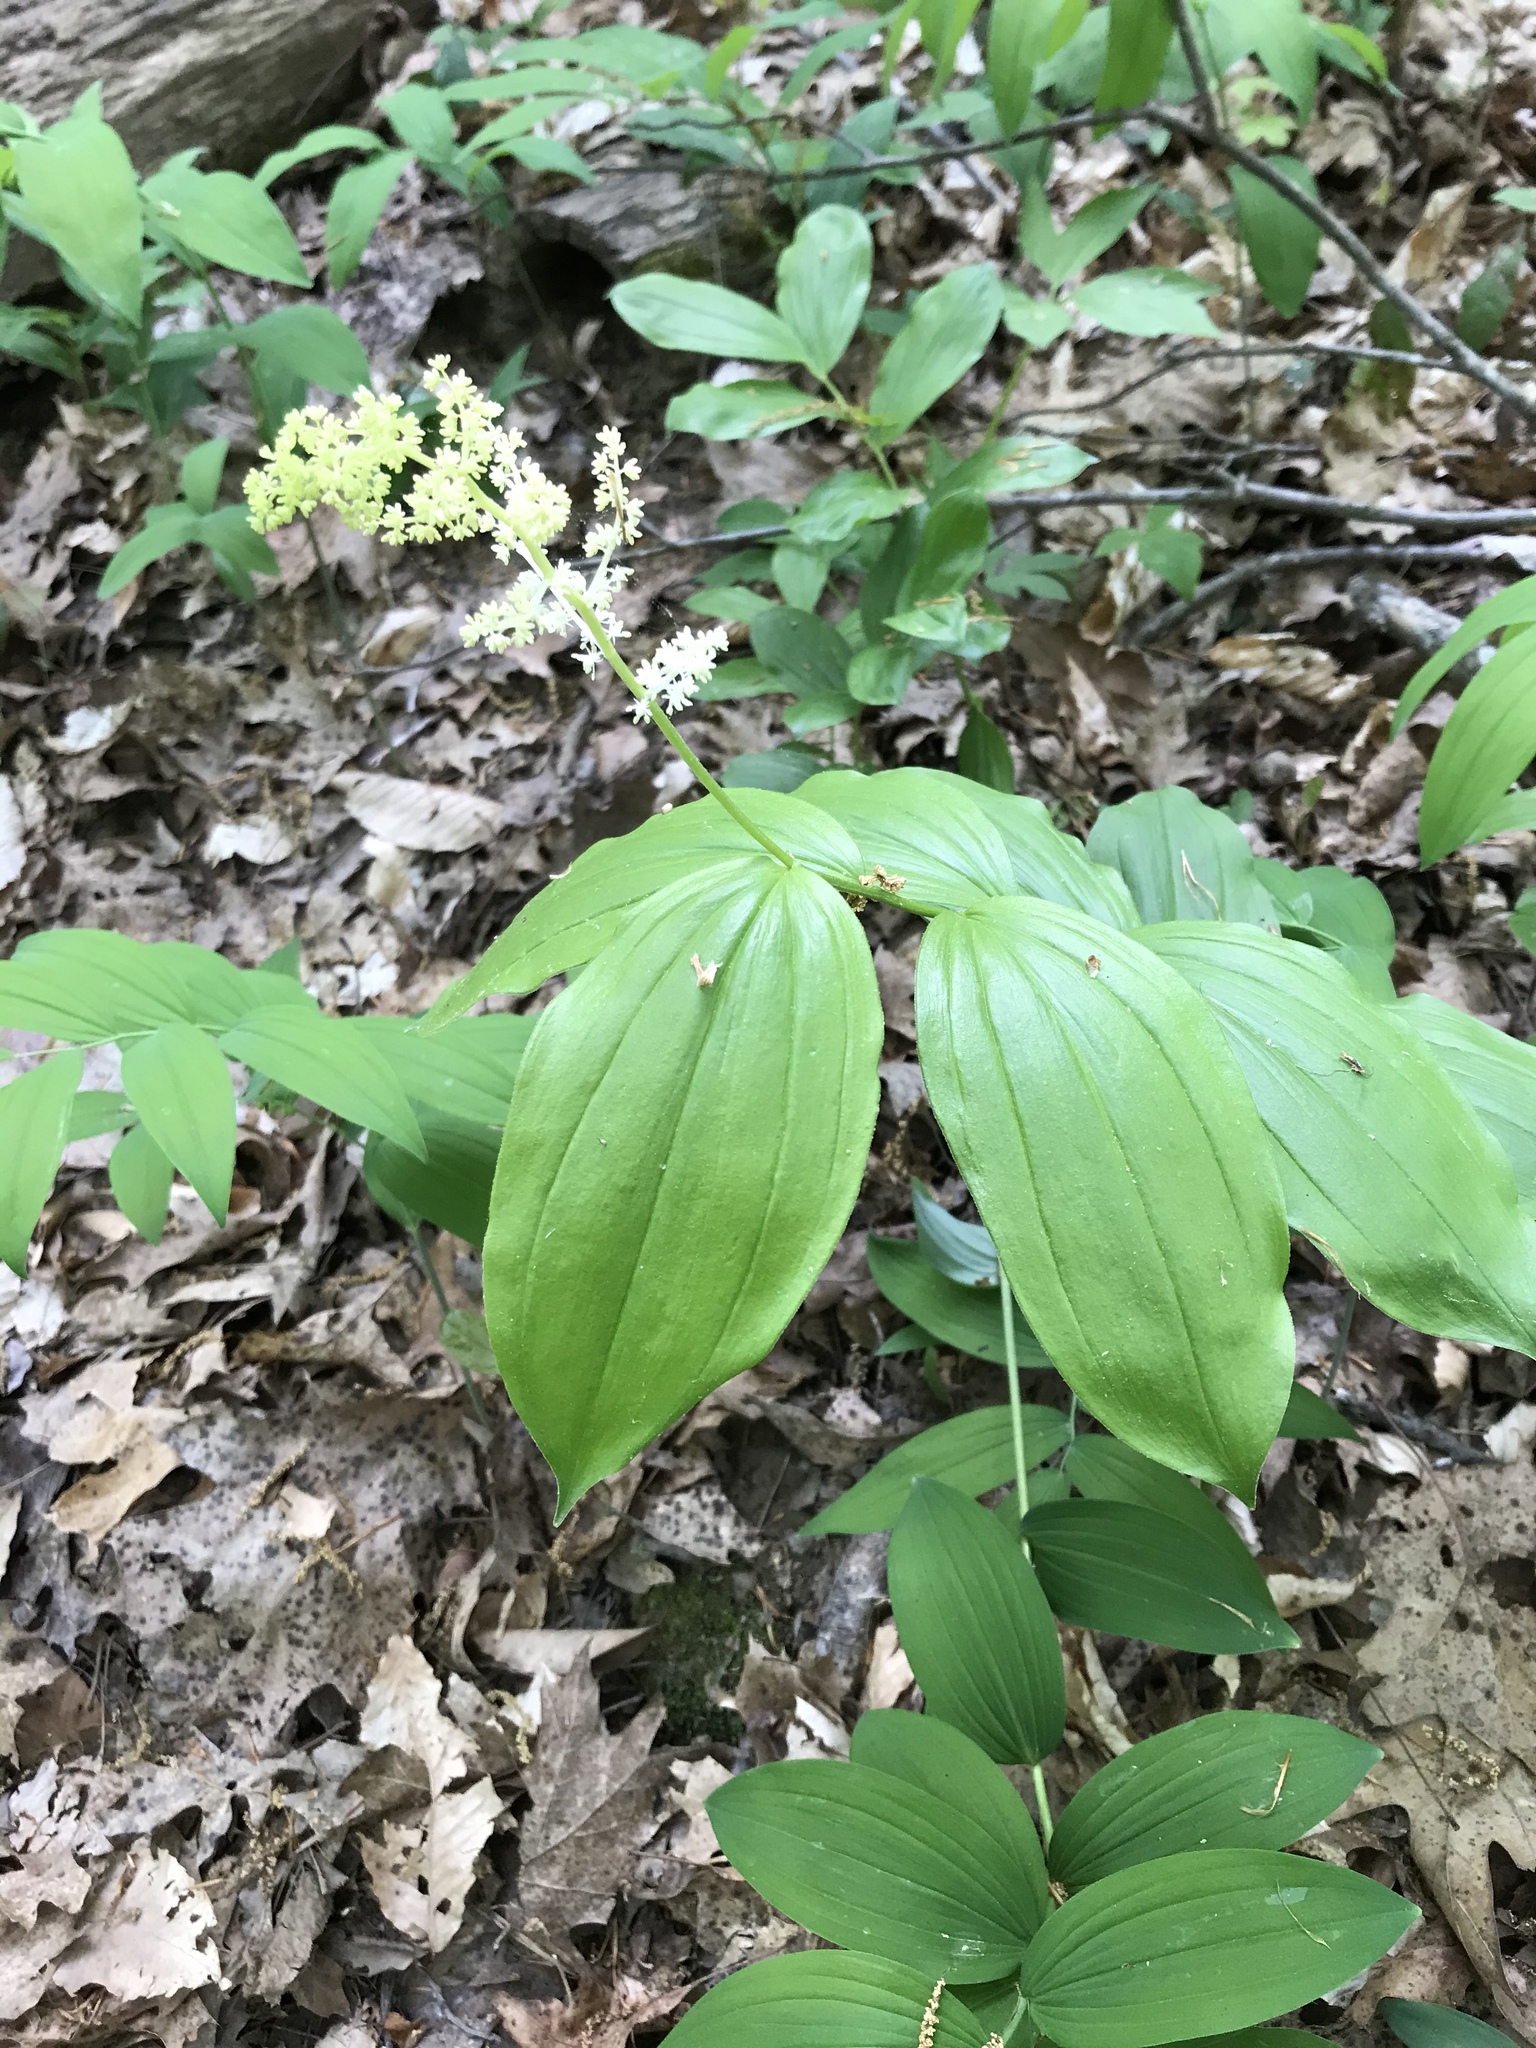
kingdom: Plantae
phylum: Tracheophyta
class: Liliopsida
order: Asparagales
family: Asparagaceae
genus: Maianthemum
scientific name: Maianthemum racemosum
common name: False spikenard
